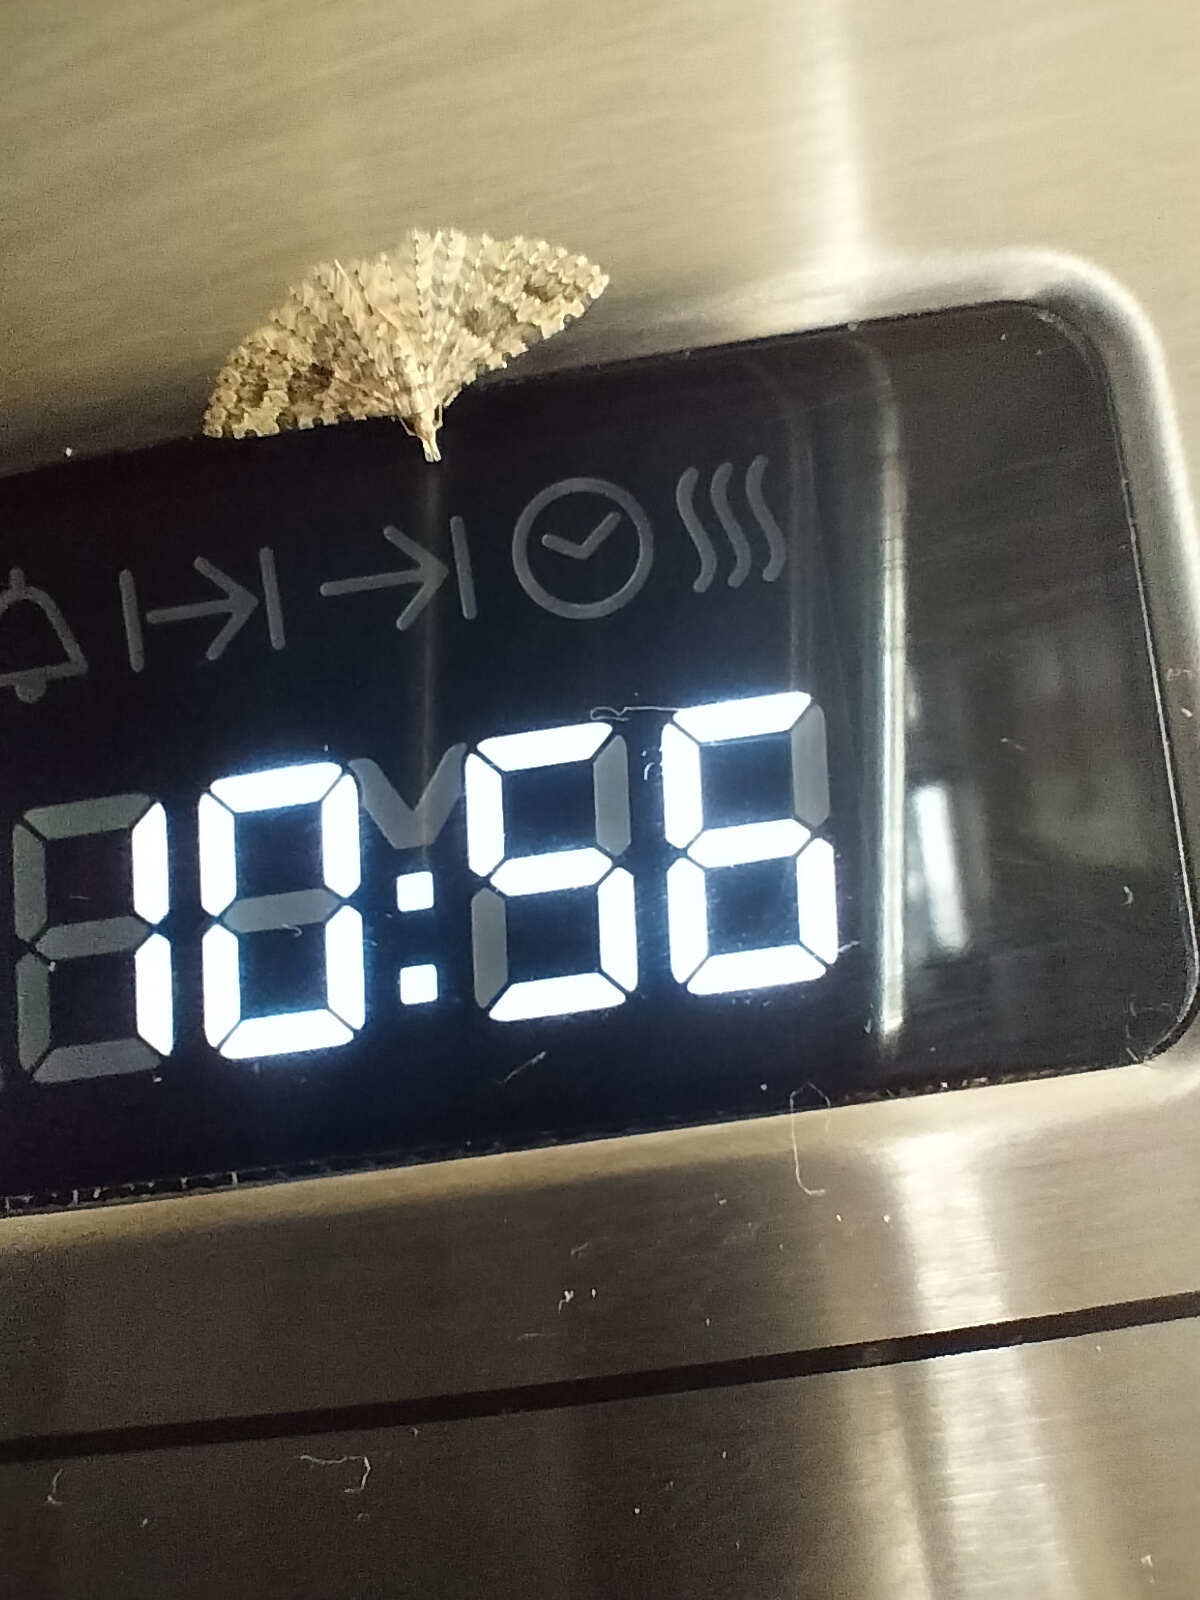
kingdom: Animalia
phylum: Arthropoda
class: Insecta
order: Lepidoptera
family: Alucitidae
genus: Alucita
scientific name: Alucita hexadactyla
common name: Twenty-plume moth
